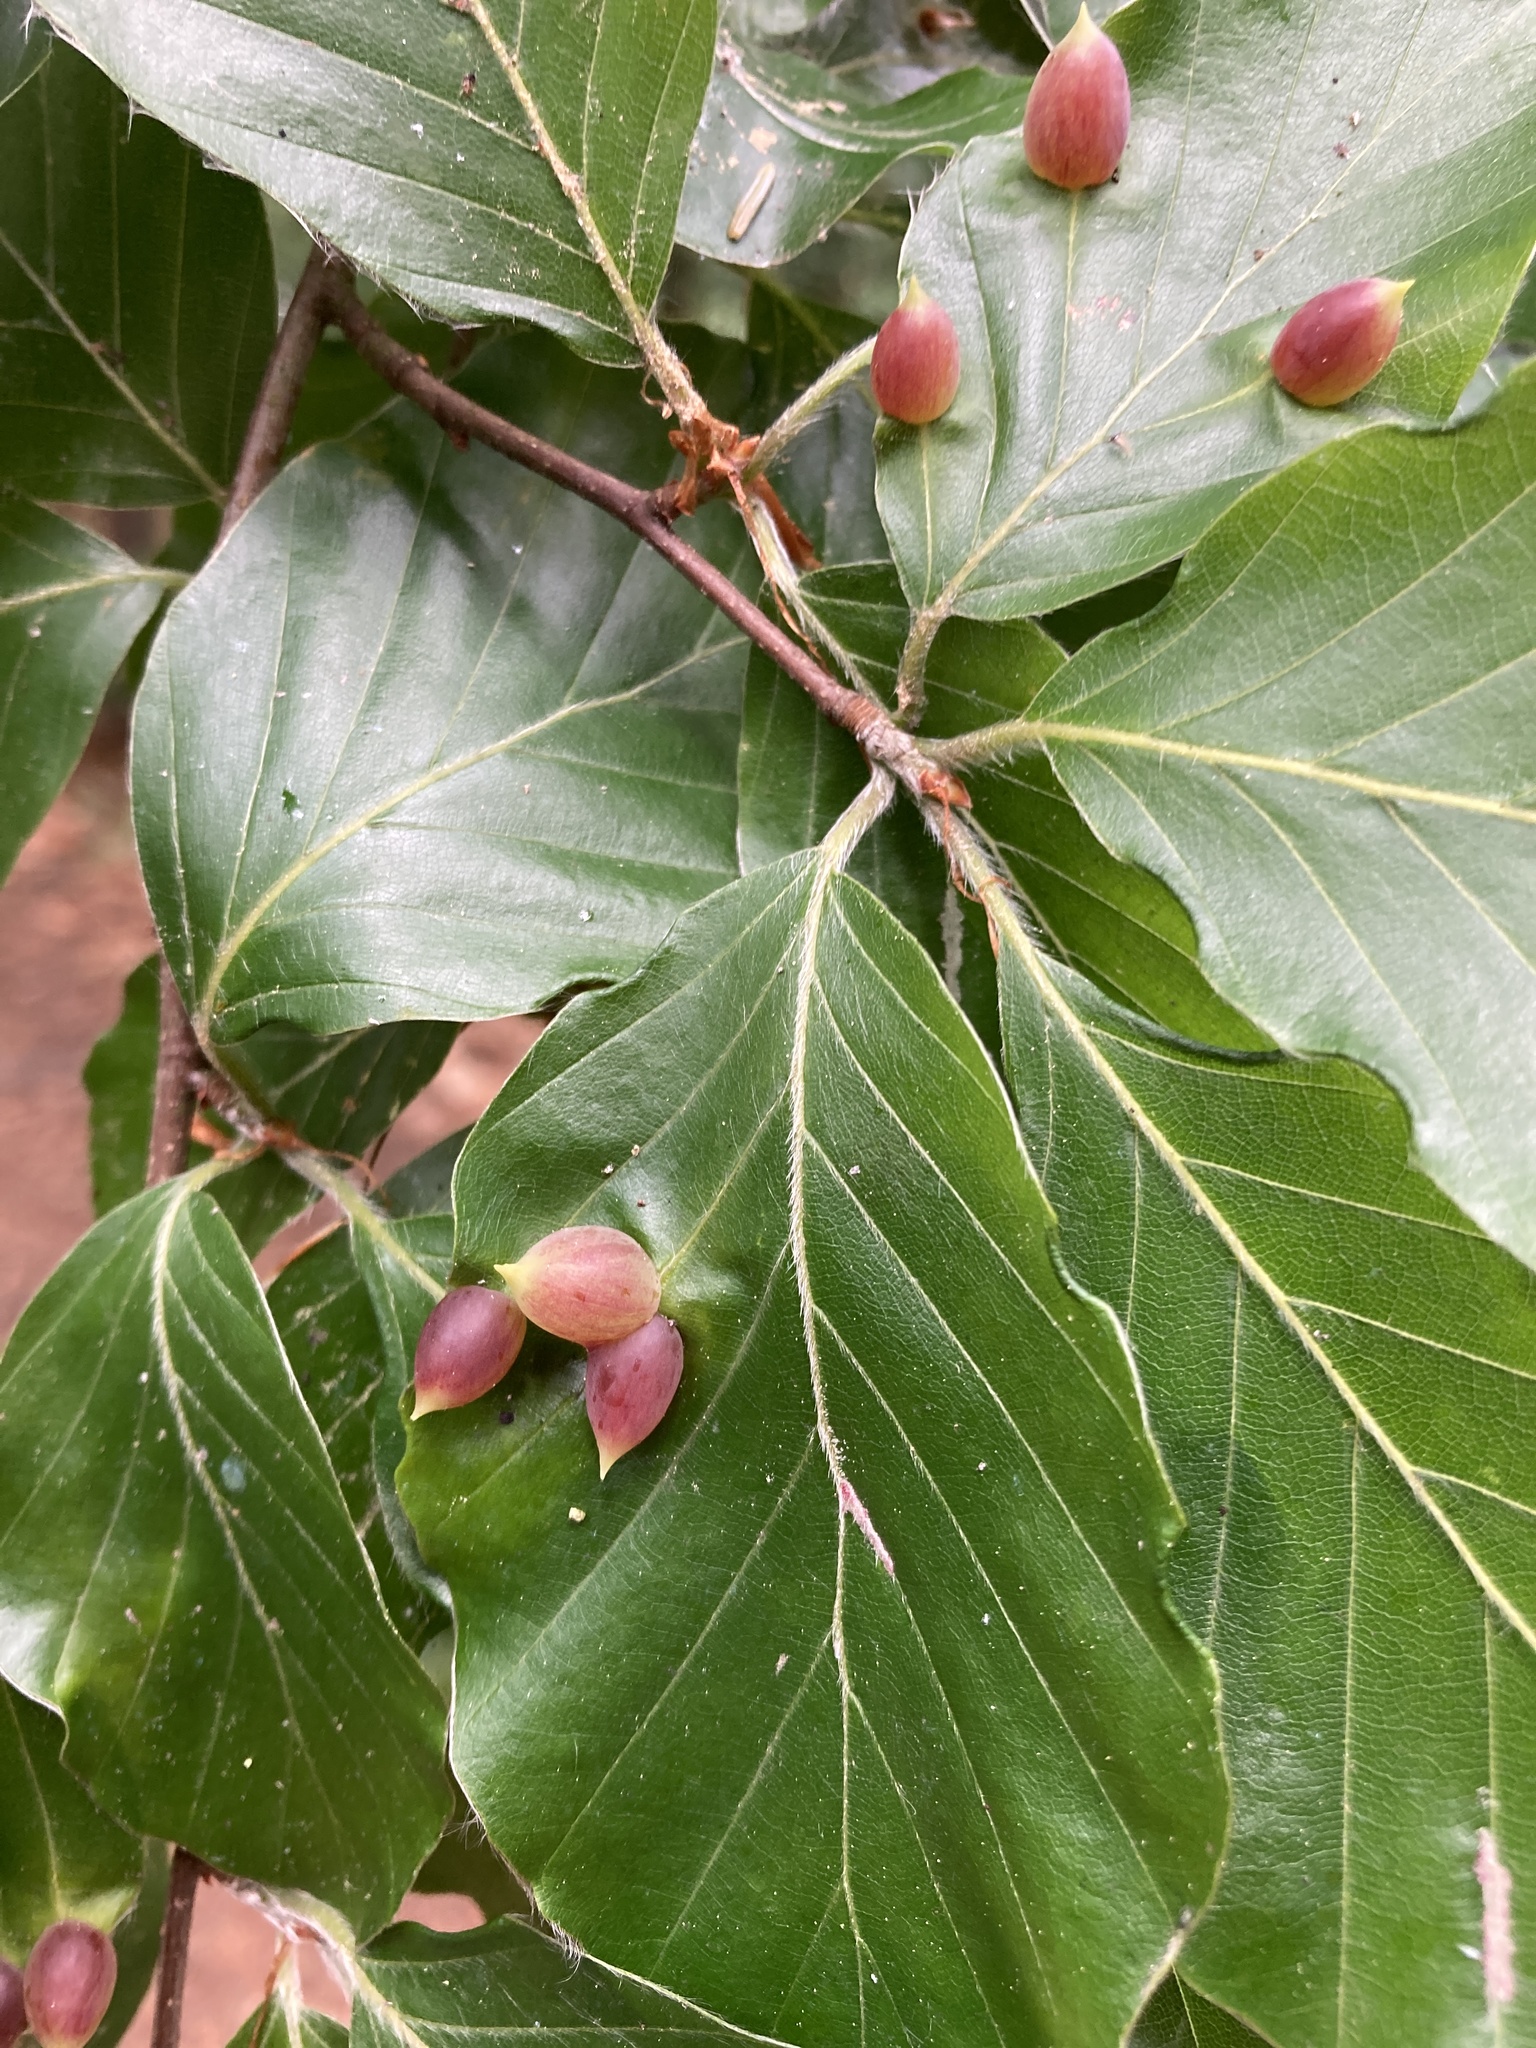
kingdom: Animalia
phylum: Arthropoda
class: Insecta
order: Diptera
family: Cecidomyiidae
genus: Mikiola
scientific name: Mikiola fagi
